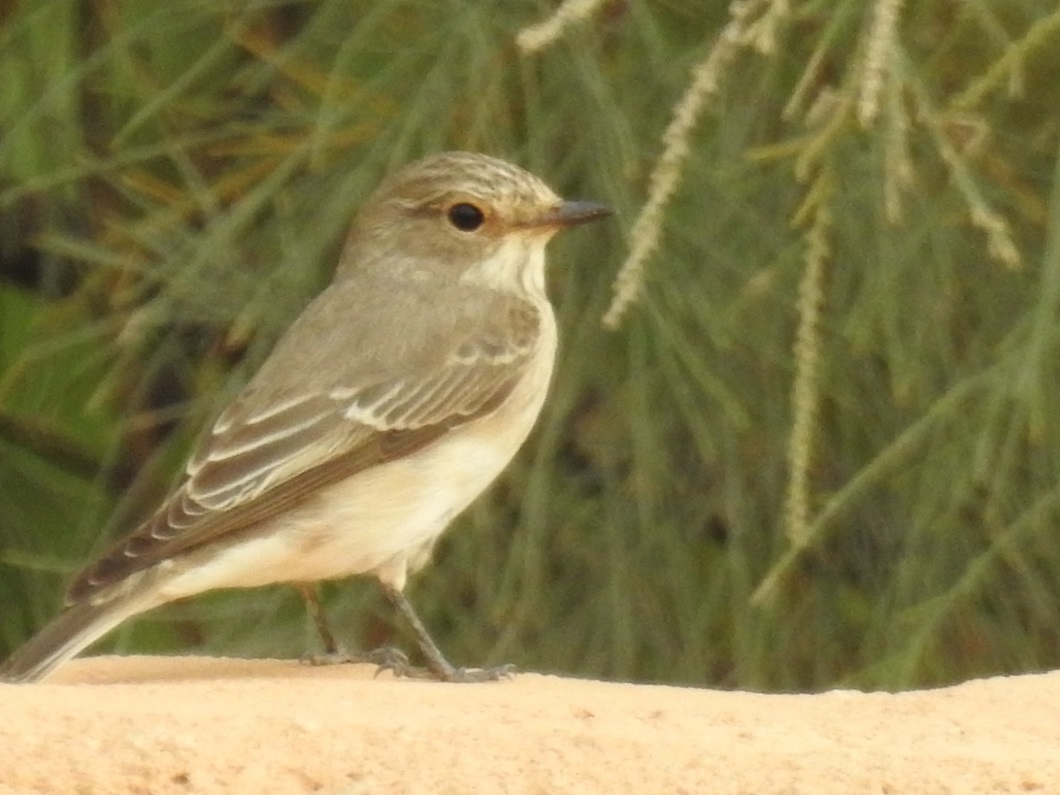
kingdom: Animalia
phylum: Chordata
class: Aves
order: Passeriformes
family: Muscicapidae
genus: Muscicapa
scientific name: Muscicapa striata
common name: Spotted flycatcher
